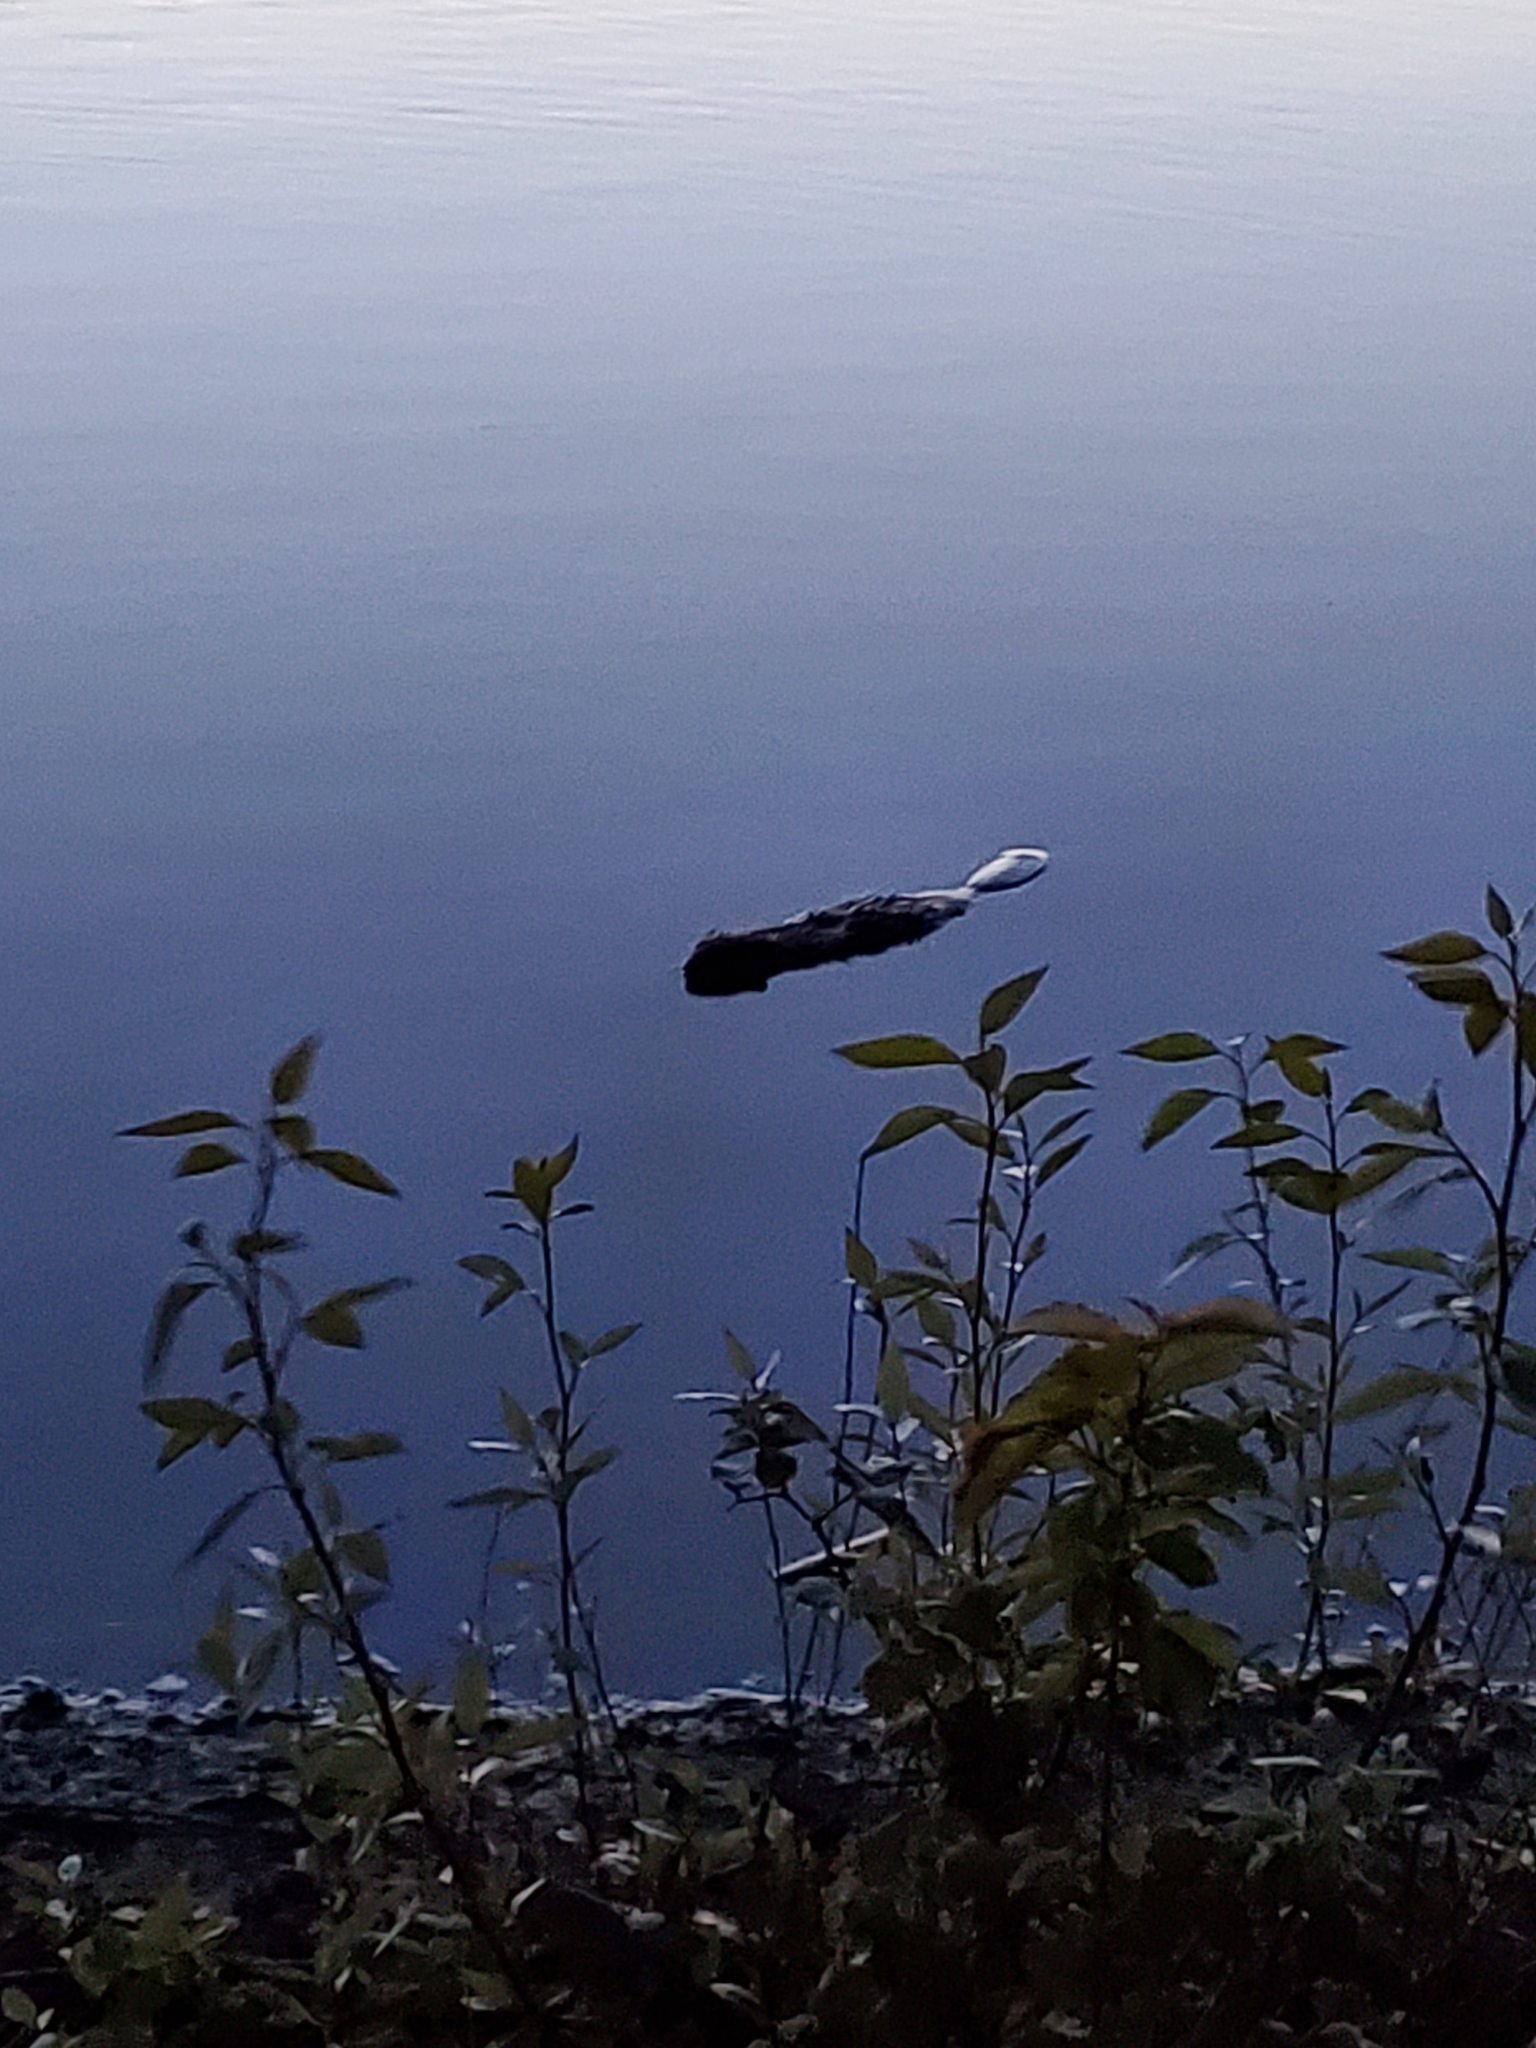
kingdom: Animalia
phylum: Chordata
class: Mammalia
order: Rodentia
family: Castoridae
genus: Castor
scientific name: Castor canadensis
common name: American beaver
